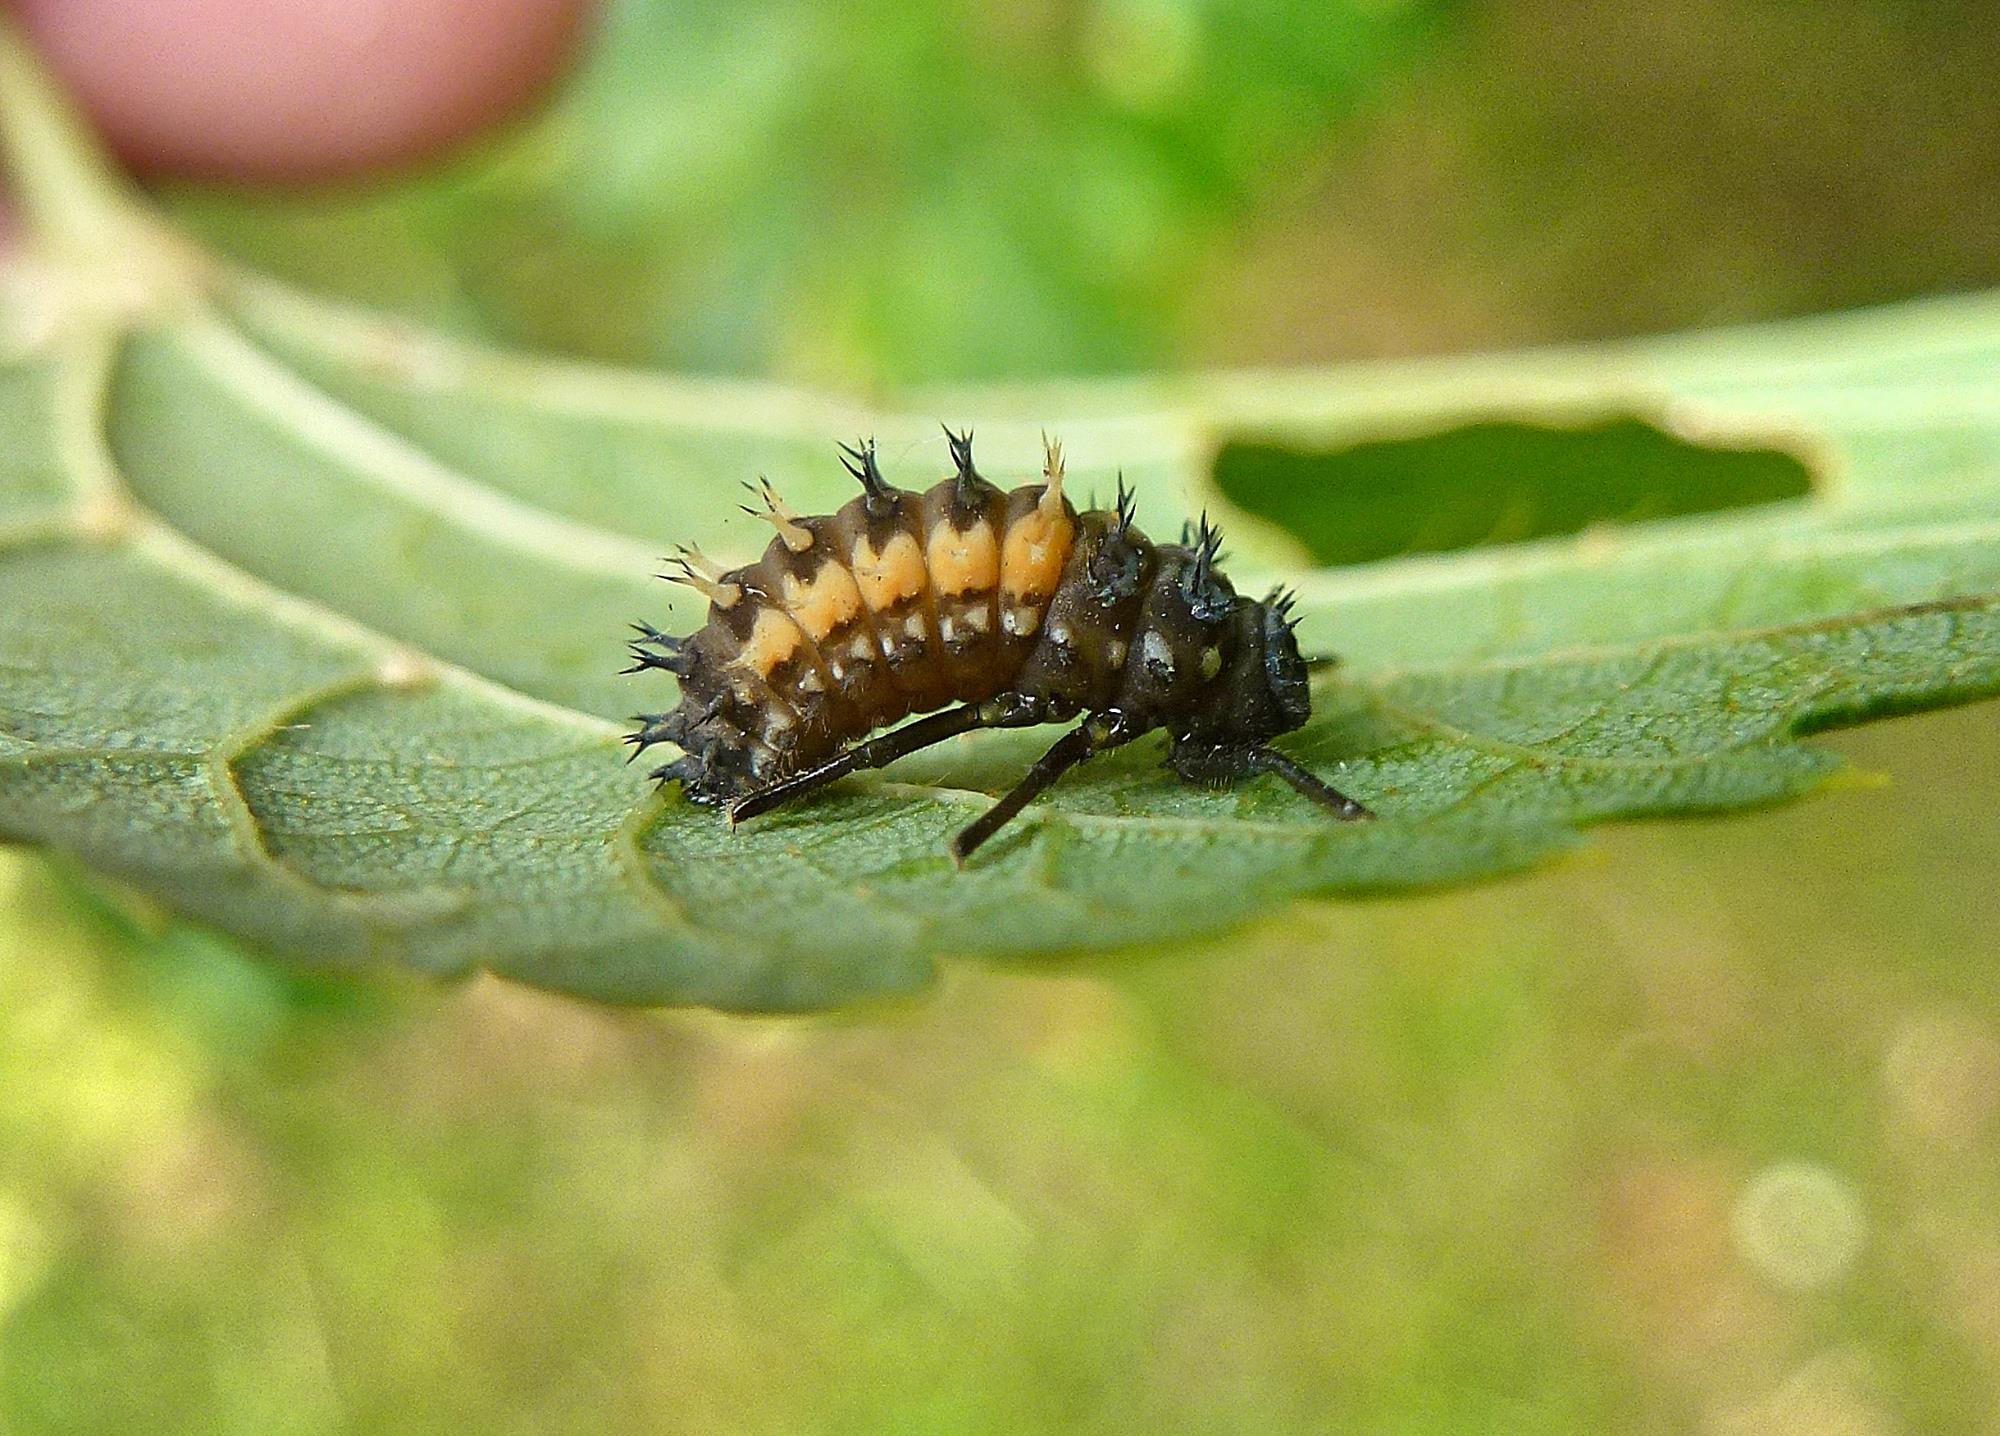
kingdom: Animalia
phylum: Arthropoda
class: Insecta
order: Coleoptera
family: Coccinellidae
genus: Harmonia
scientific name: Harmonia axyridis
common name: Harlequin ladybird
